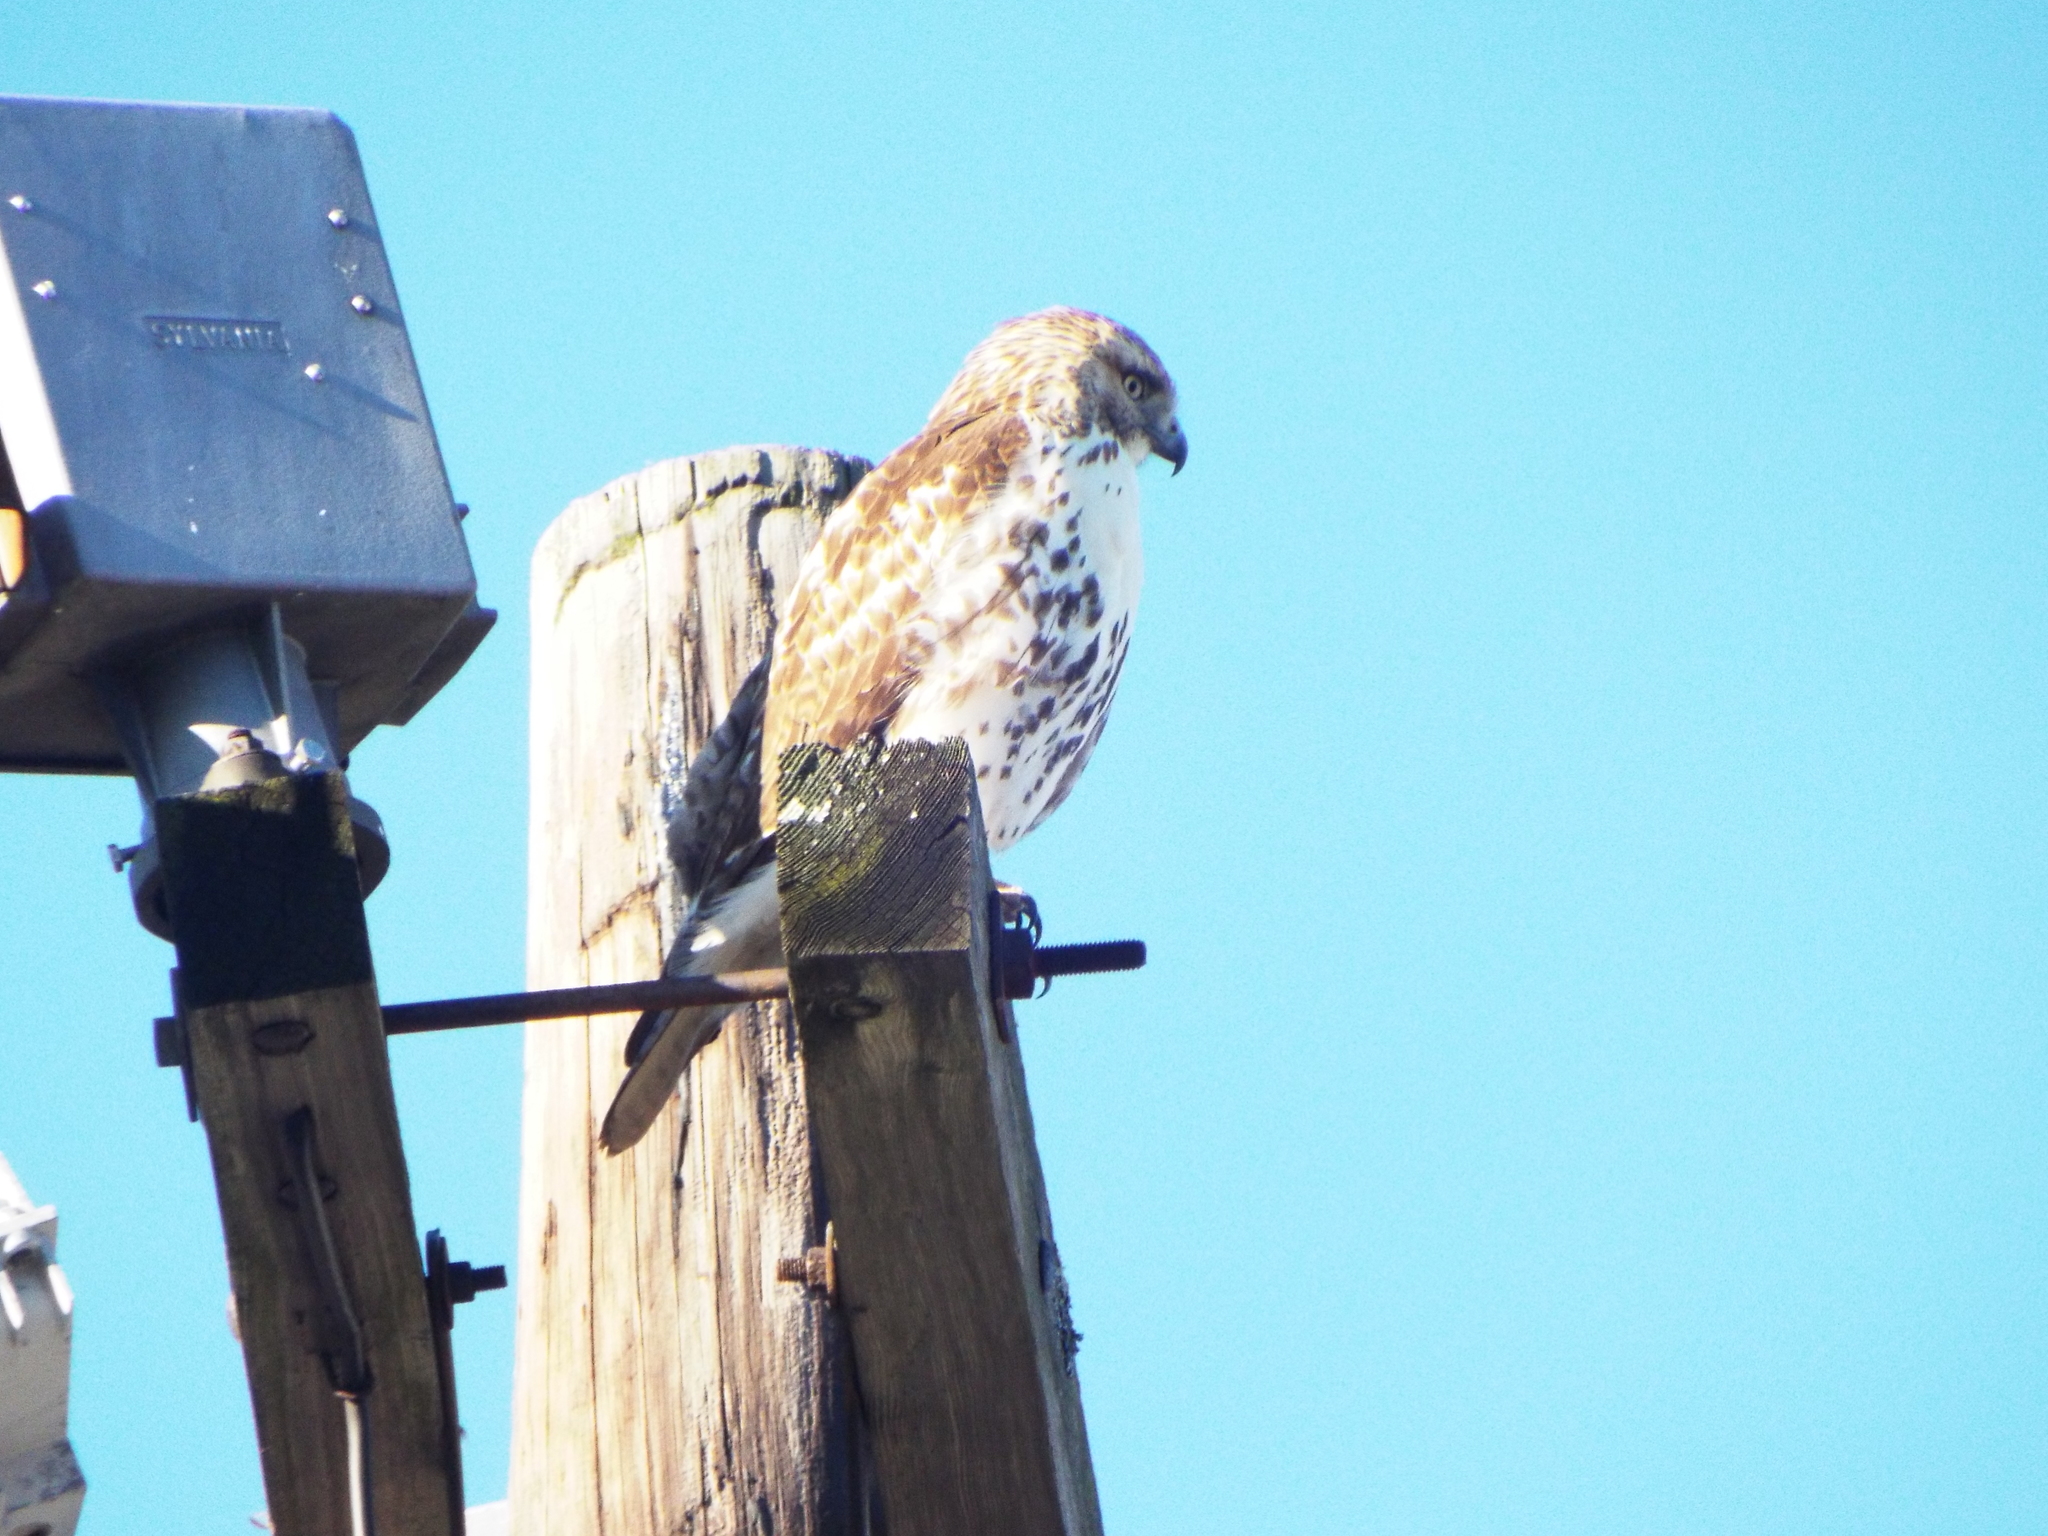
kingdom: Animalia
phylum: Chordata
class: Aves
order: Accipitriformes
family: Accipitridae
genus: Buteo
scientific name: Buteo jamaicensis
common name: Red-tailed hawk
